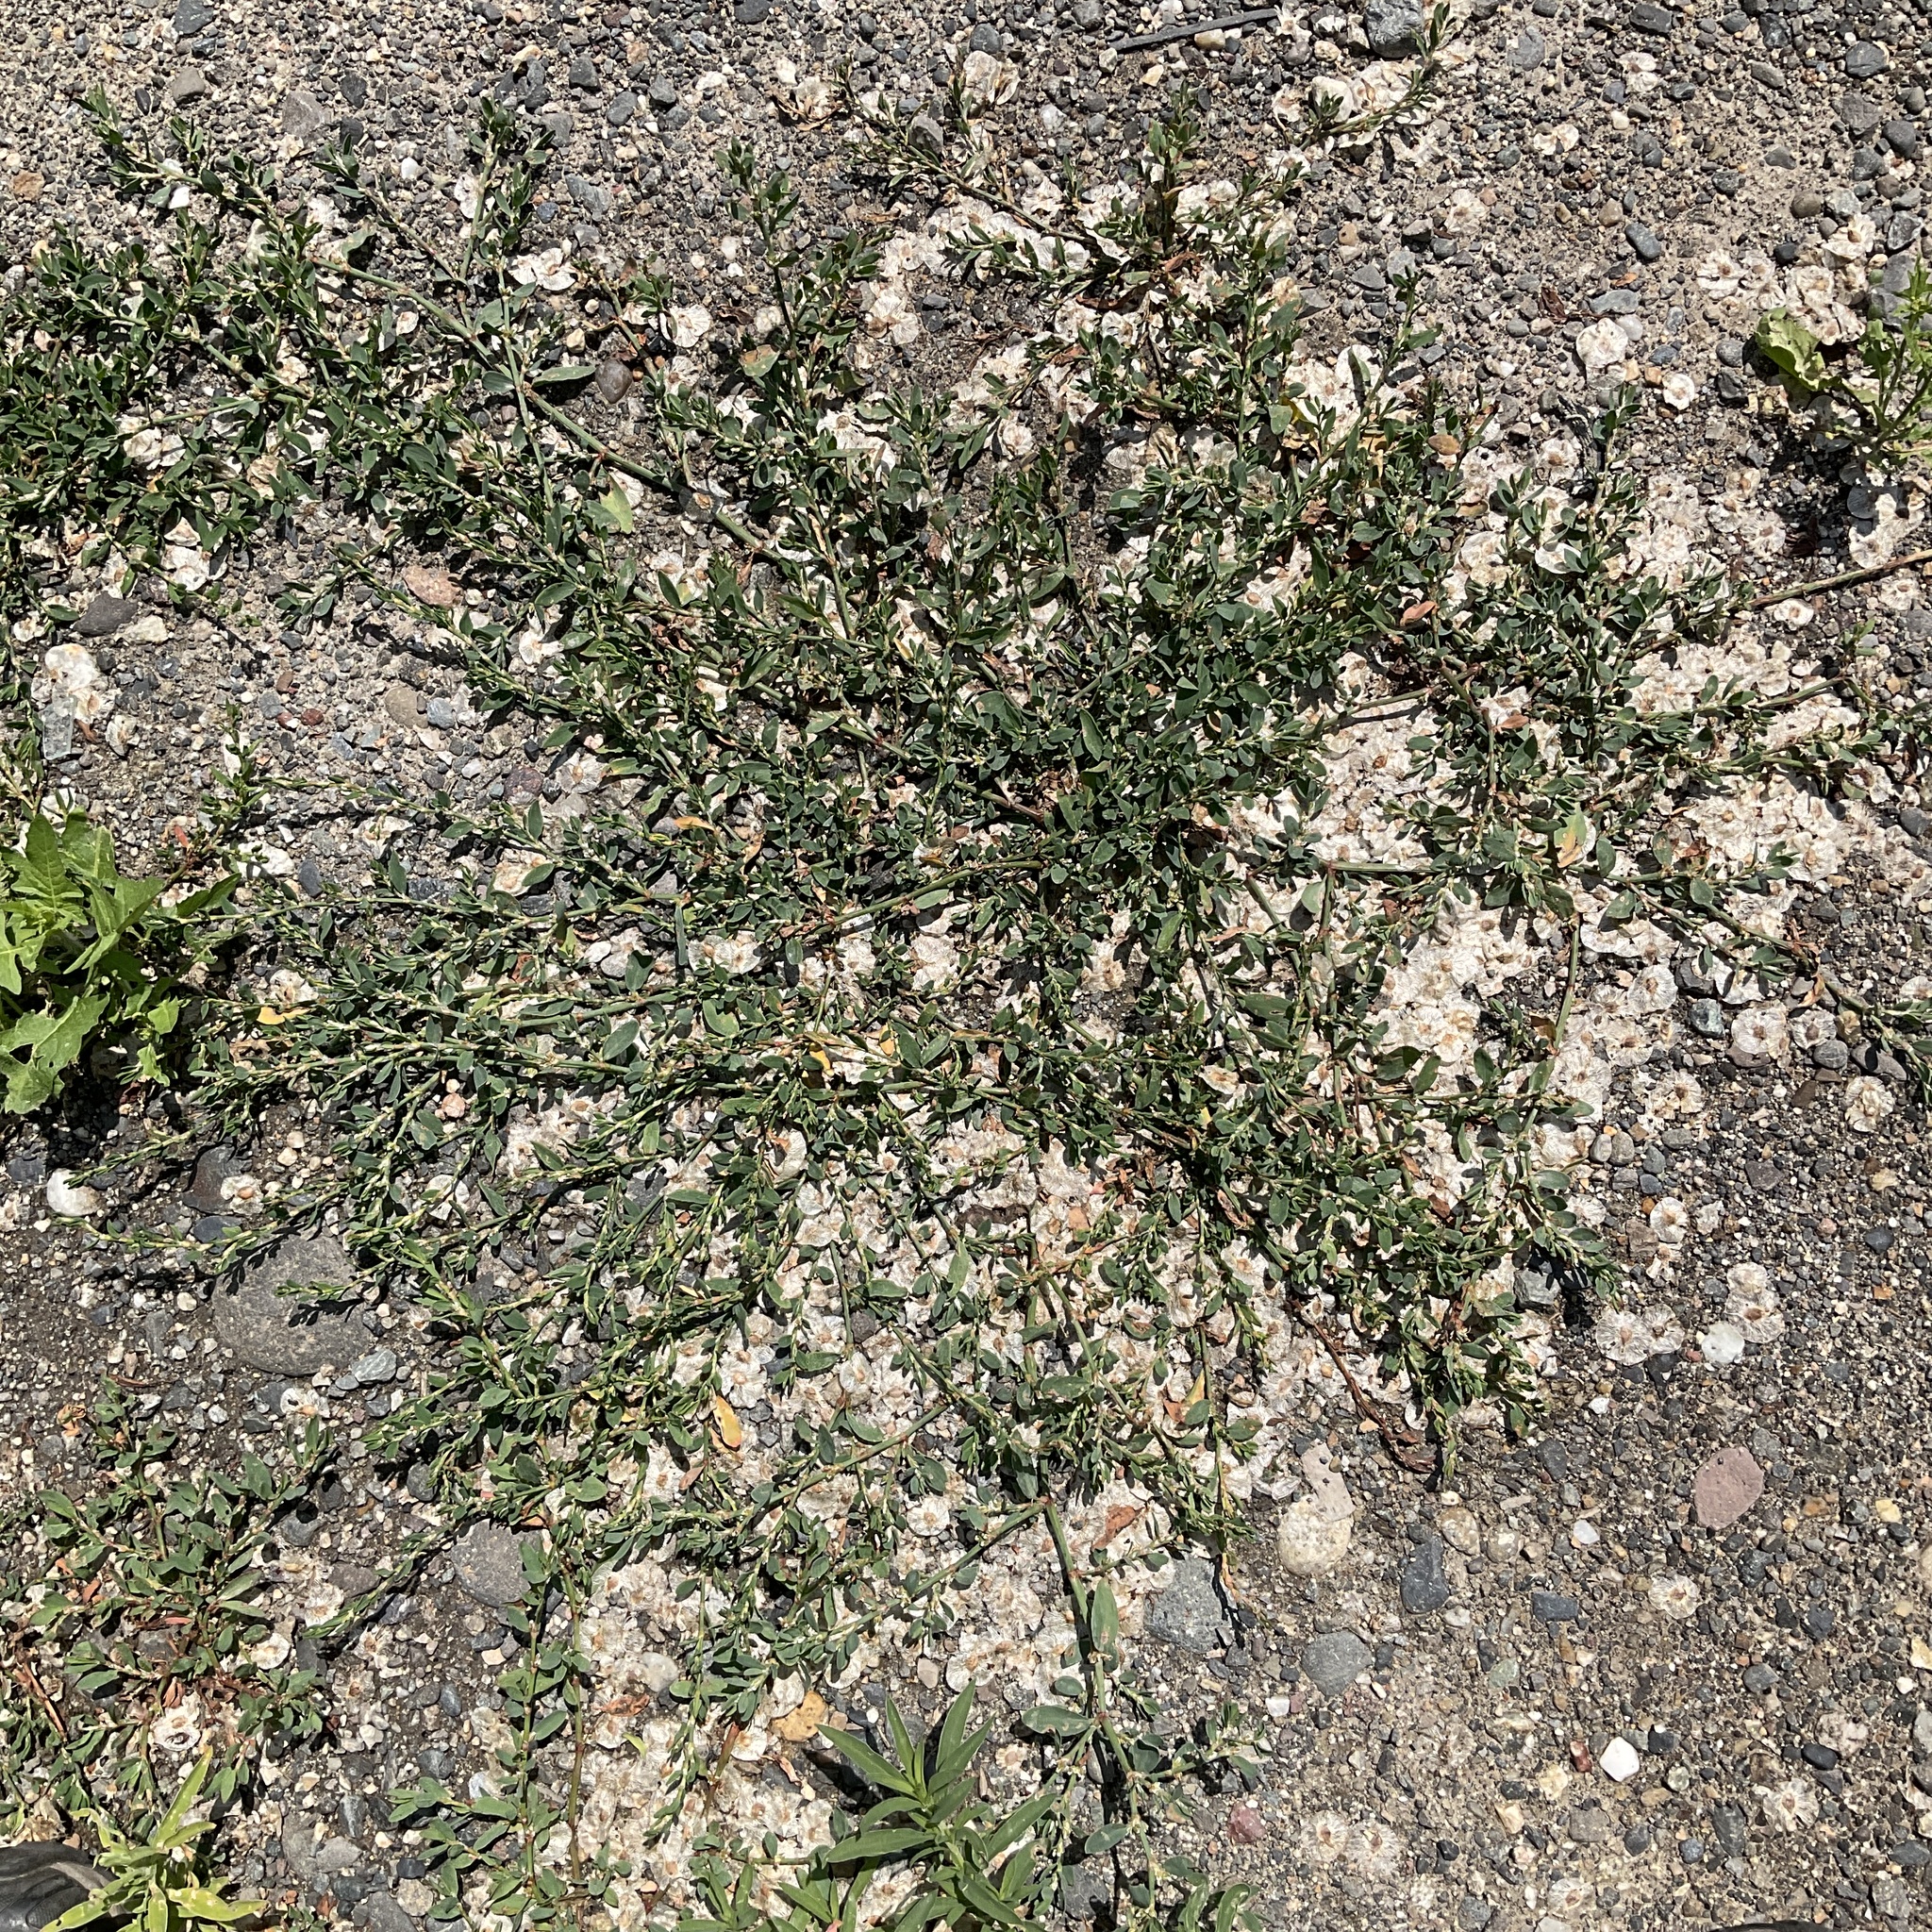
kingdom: Plantae
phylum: Tracheophyta
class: Magnoliopsida
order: Caryophyllales
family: Polygonaceae
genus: Polygonum
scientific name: Polygonum aviculare
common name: Prostrate knotweed
